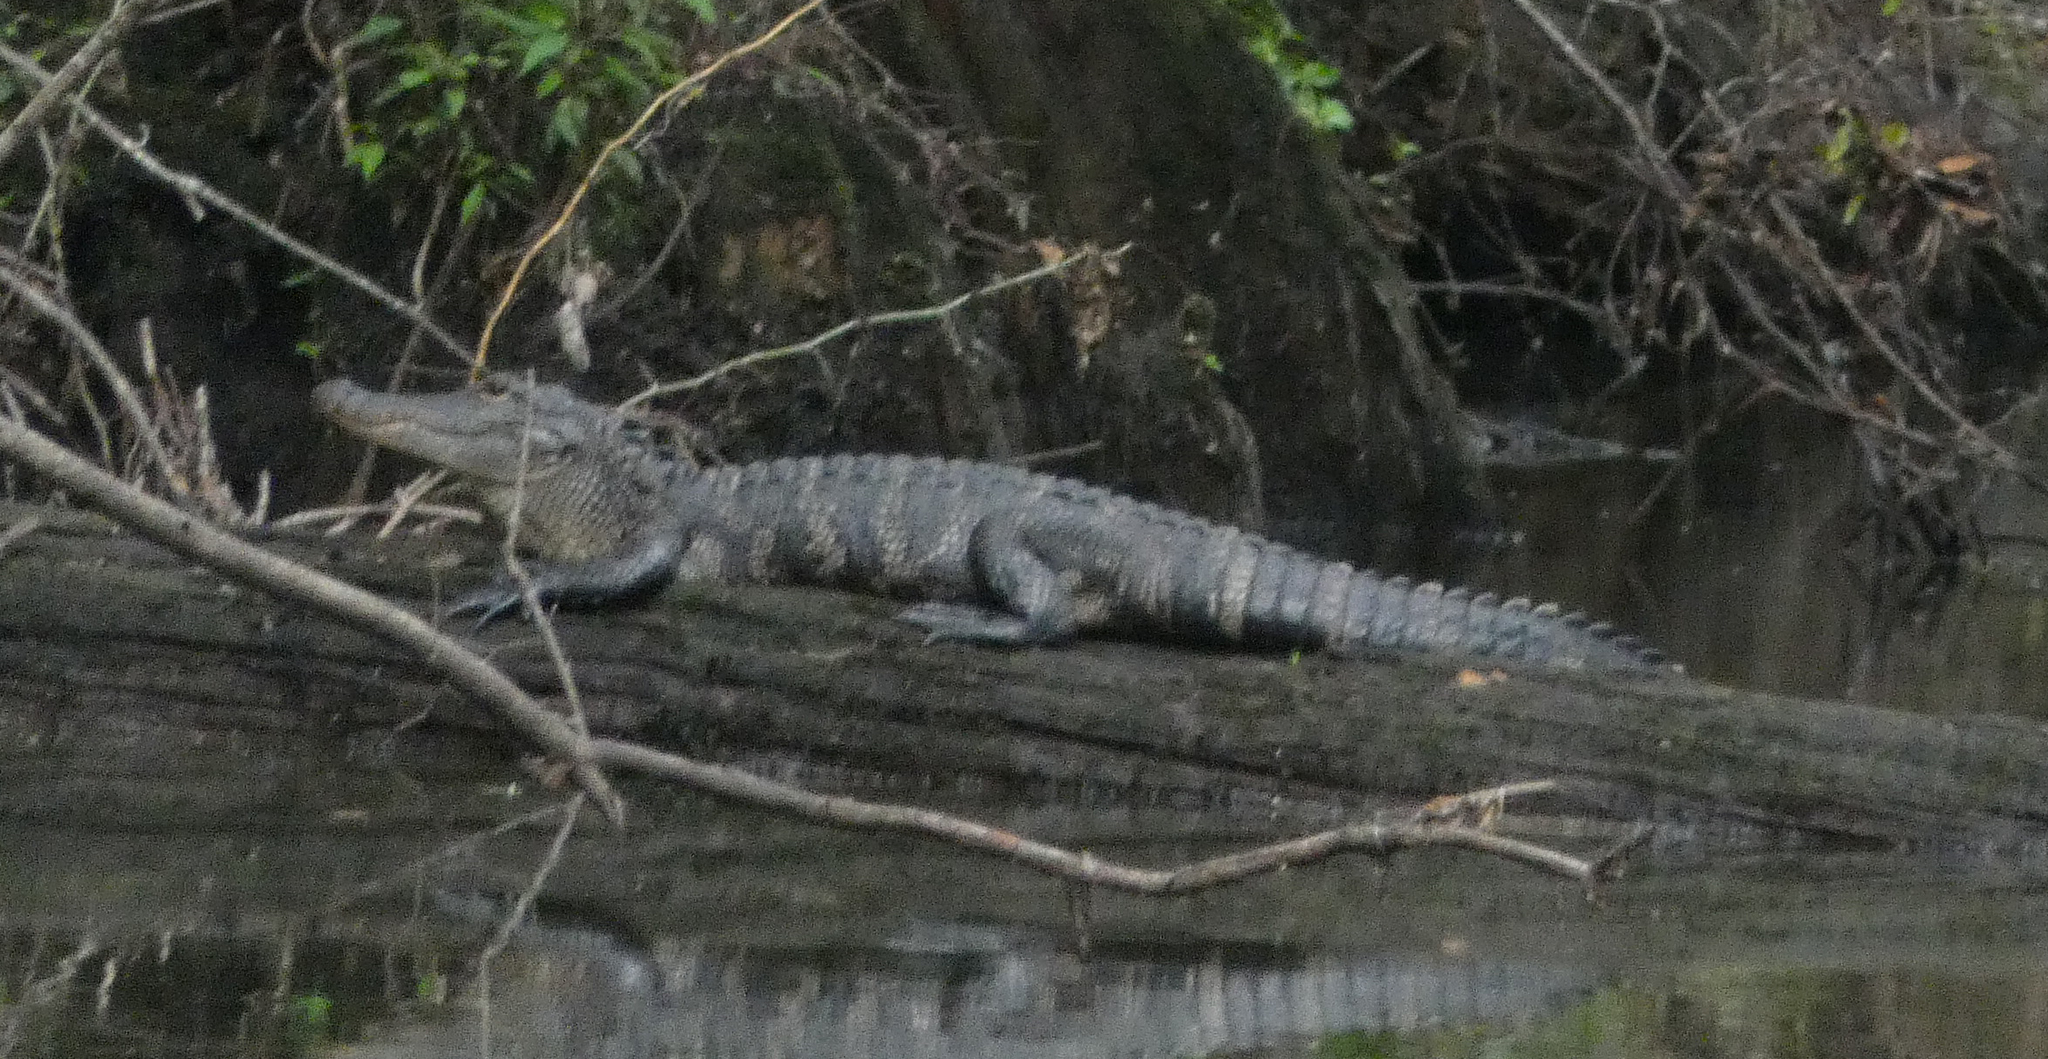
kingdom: Animalia
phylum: Chordata
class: Crocodylia
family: Alligatoridae
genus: Alligator
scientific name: Alligator mississippiensis
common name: American alligator
